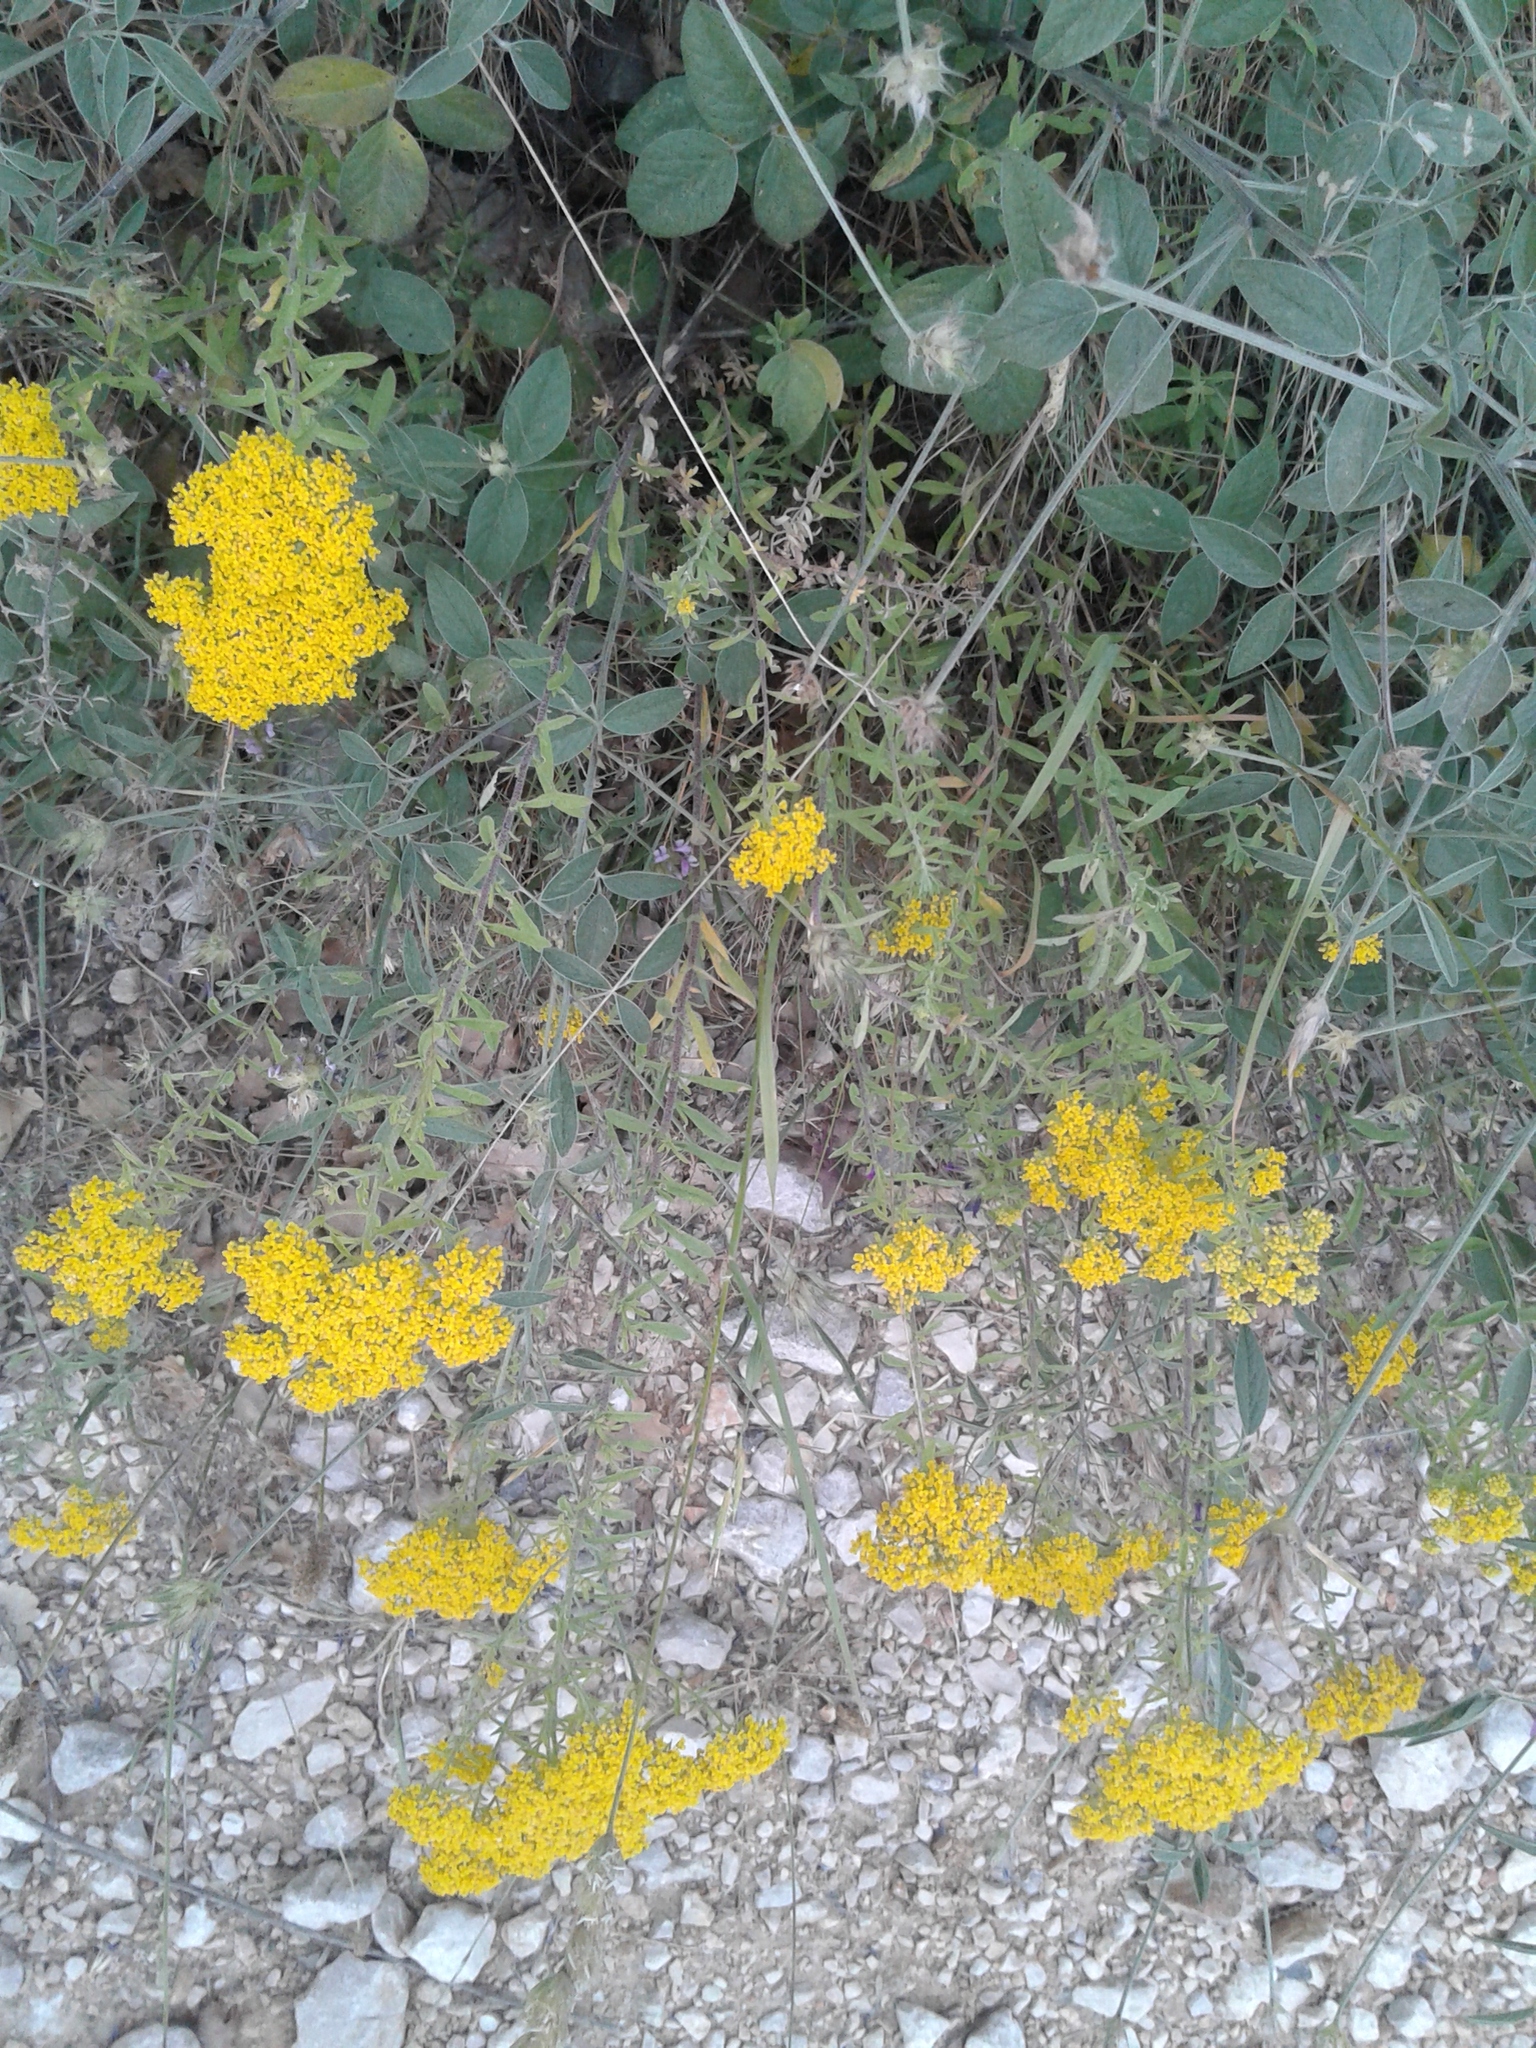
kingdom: Plantae
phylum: Tracheophyta
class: Magnoliopsida
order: Brassicales
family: Brassicaceae
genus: Odontarrhena
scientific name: Odontarrhena muralis
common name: Rock alyssum
